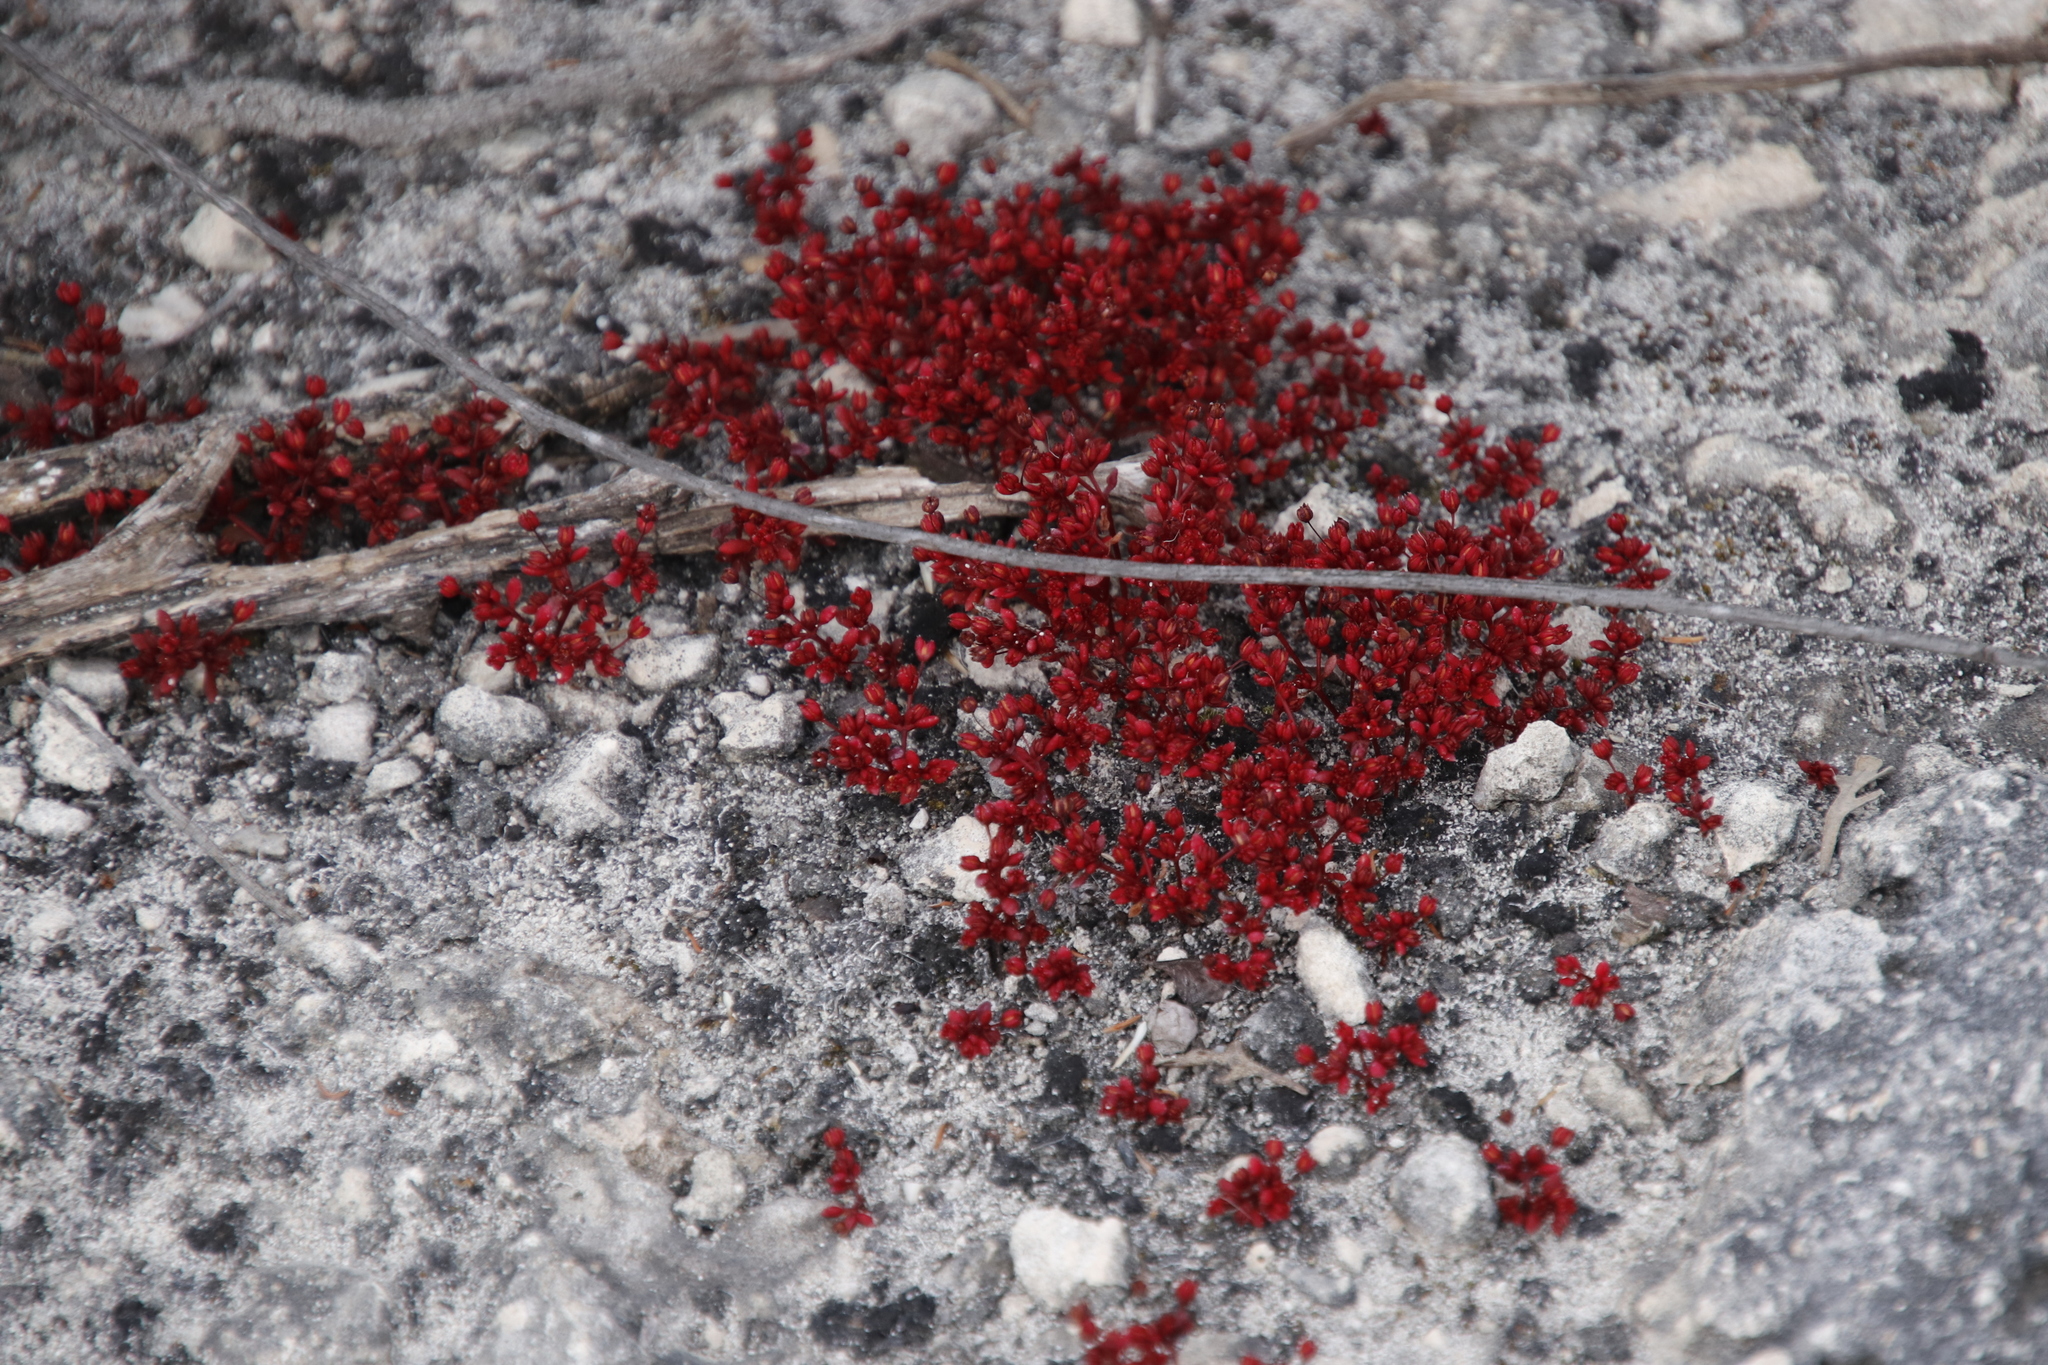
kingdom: Plantae
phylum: Tracheophyta
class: Magnoliopsida
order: Saxifragales
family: Crassulaceae
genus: Crassula
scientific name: Crassula expansa
